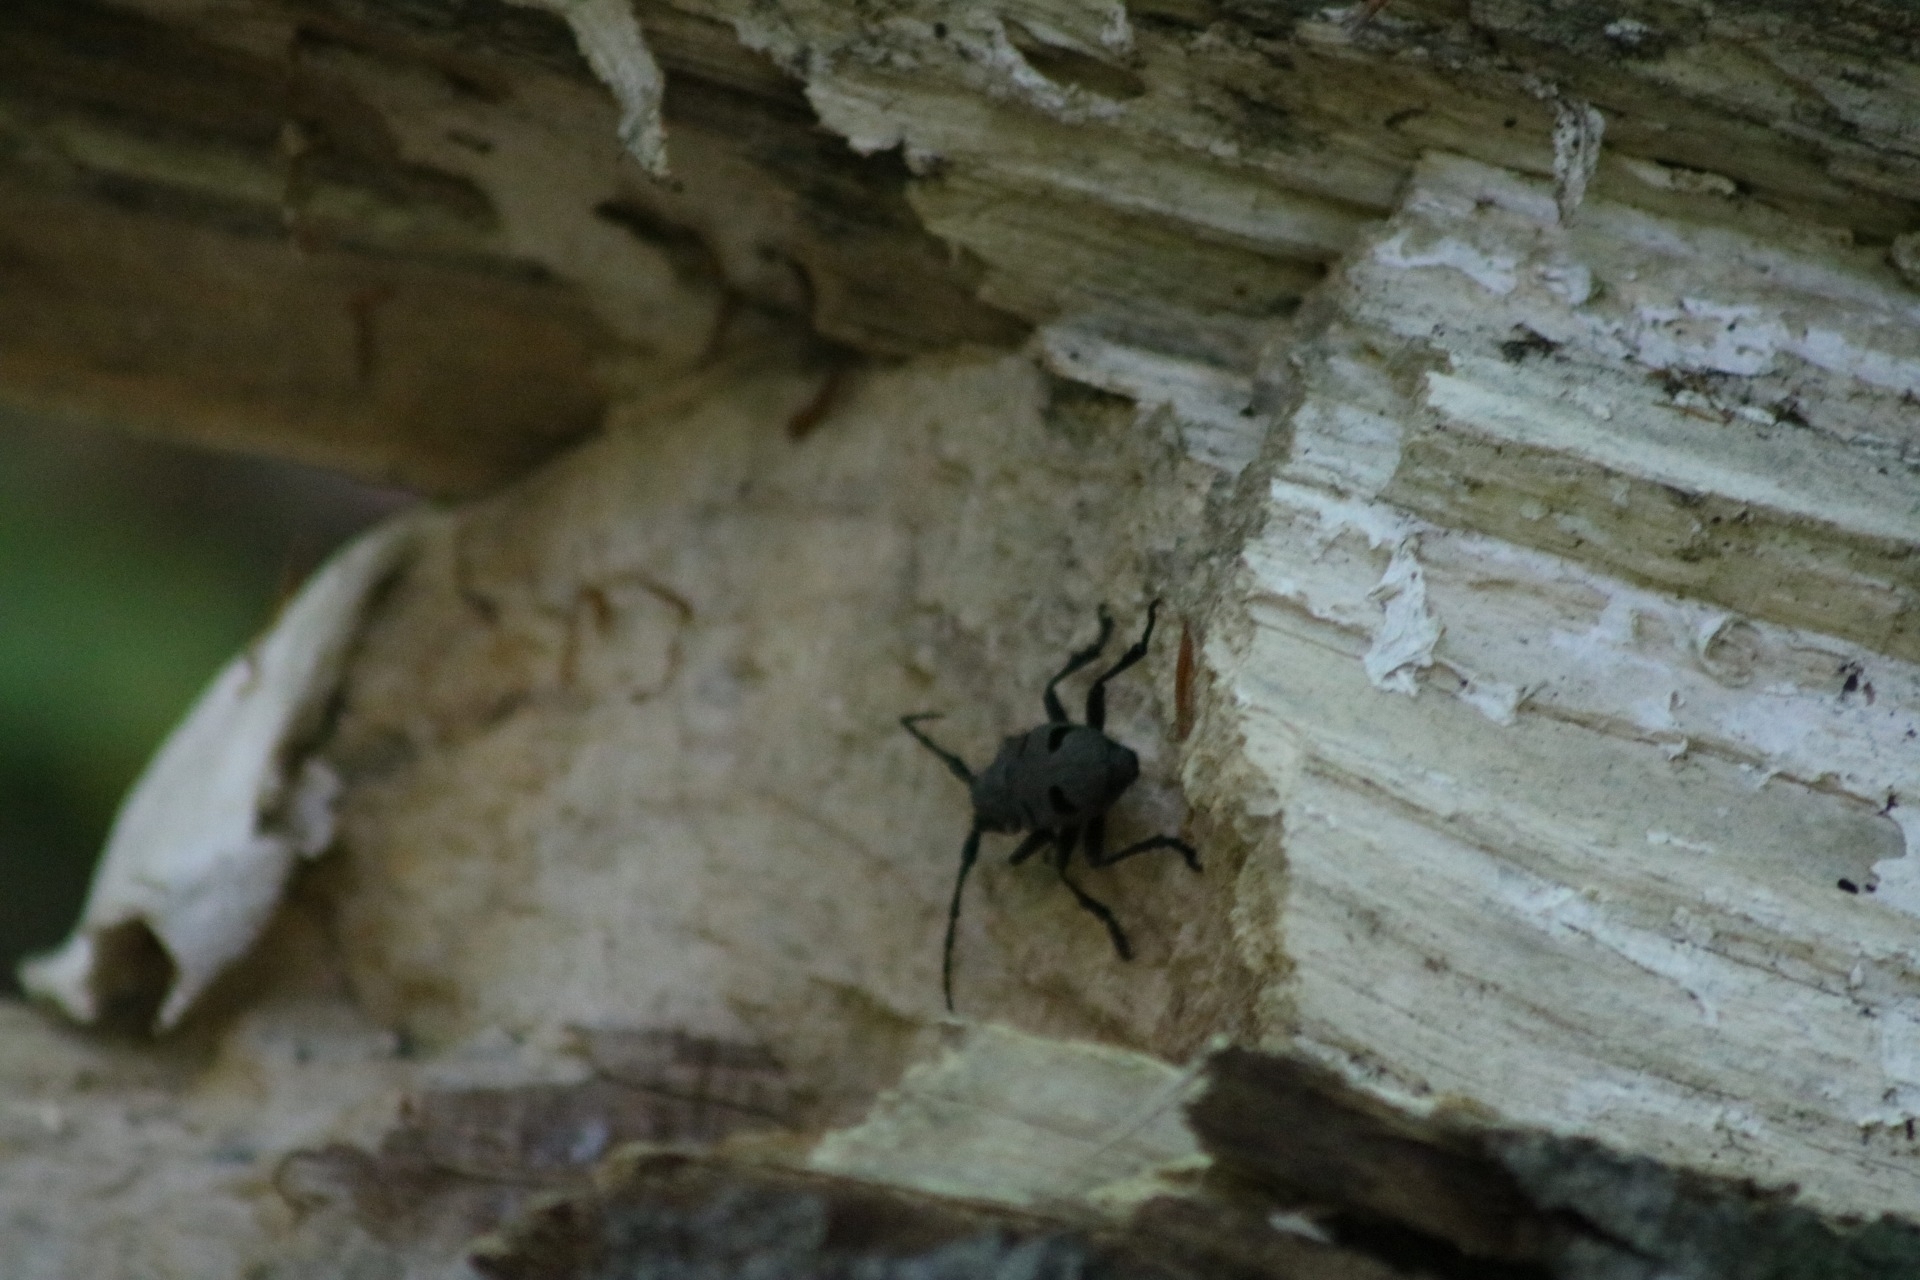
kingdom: Animalia
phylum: Arthropoda
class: Insecta
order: Coleoptera
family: Cerambycidae
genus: Morimus
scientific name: Morimus funereus
